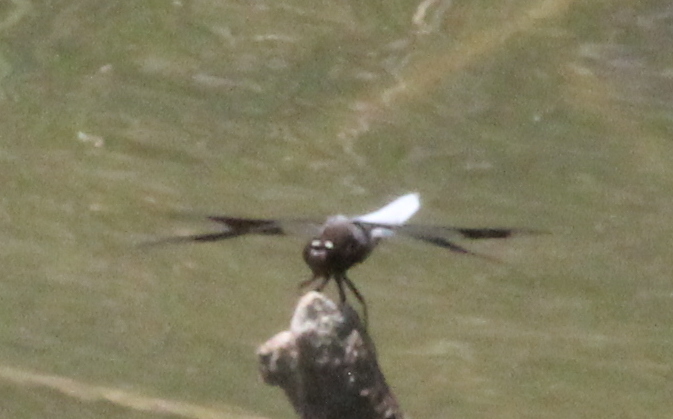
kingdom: Animalia
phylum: Arthropoda
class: Insecta
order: Odonata
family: Libellulidae
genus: Plathemis
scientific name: Plathemis lydia
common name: Common whitetail
